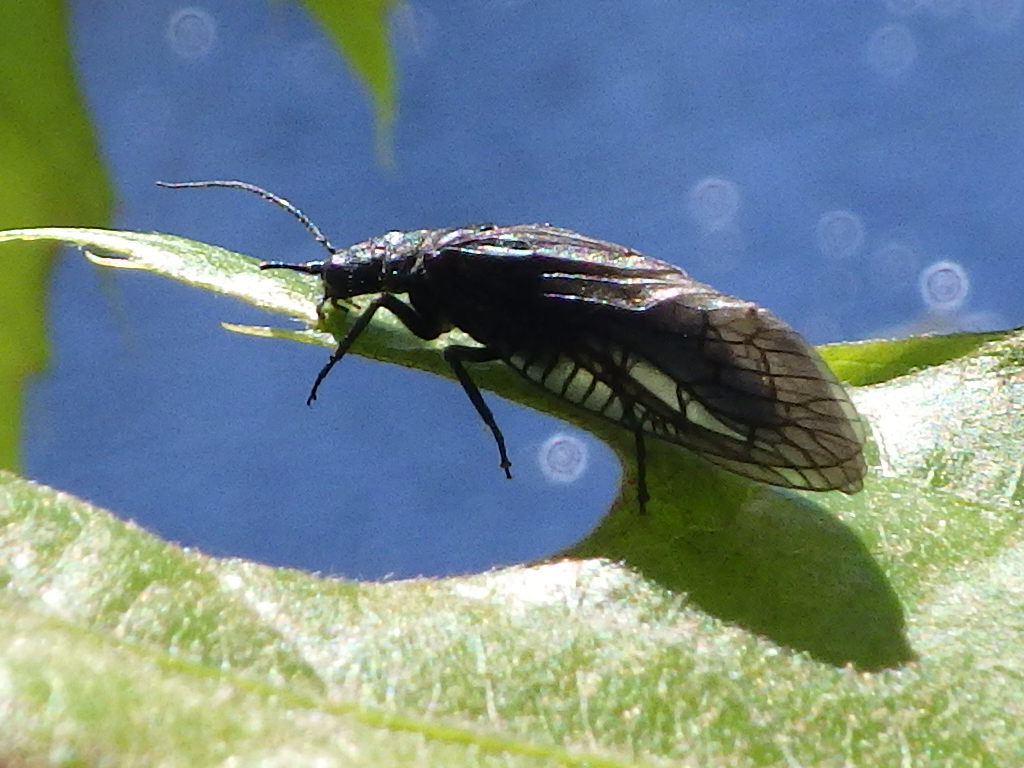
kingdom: Animalia
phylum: Arthropoda
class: Insecta
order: Megaloptera
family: Sialidae
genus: Sialis
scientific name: Sialis
